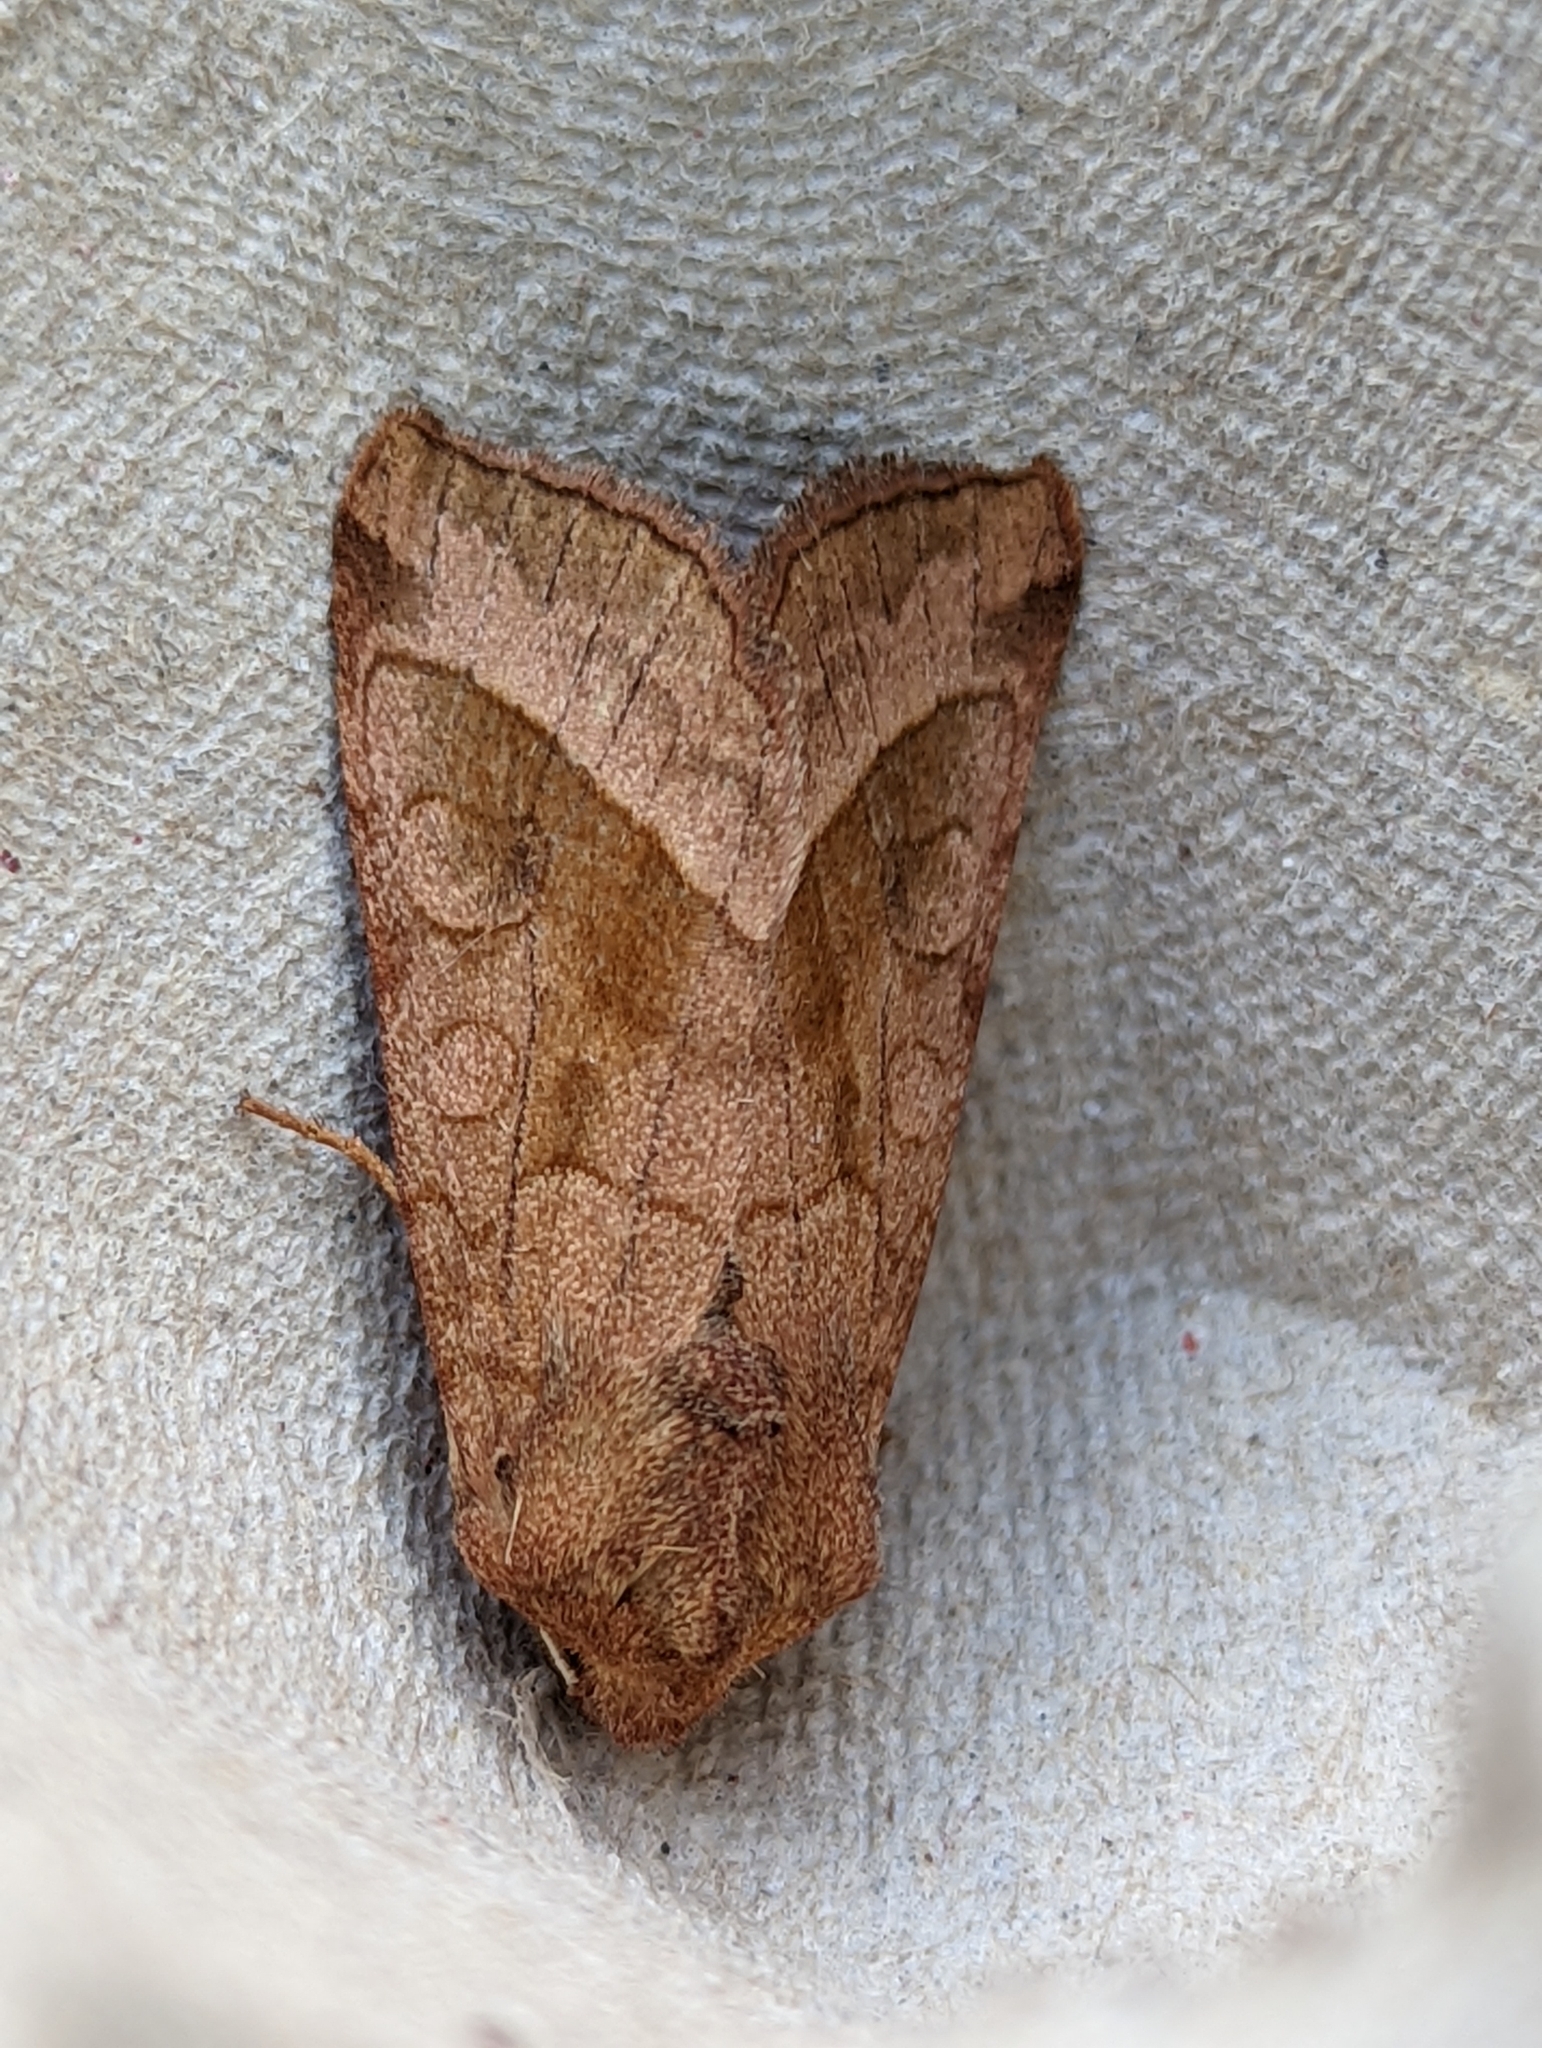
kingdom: Animalia
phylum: Arthropoda
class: Insecta
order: Lepidoptera
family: Noctuidae
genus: Hydraecia
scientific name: Hydraecia micacea
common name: Rosy rustic
